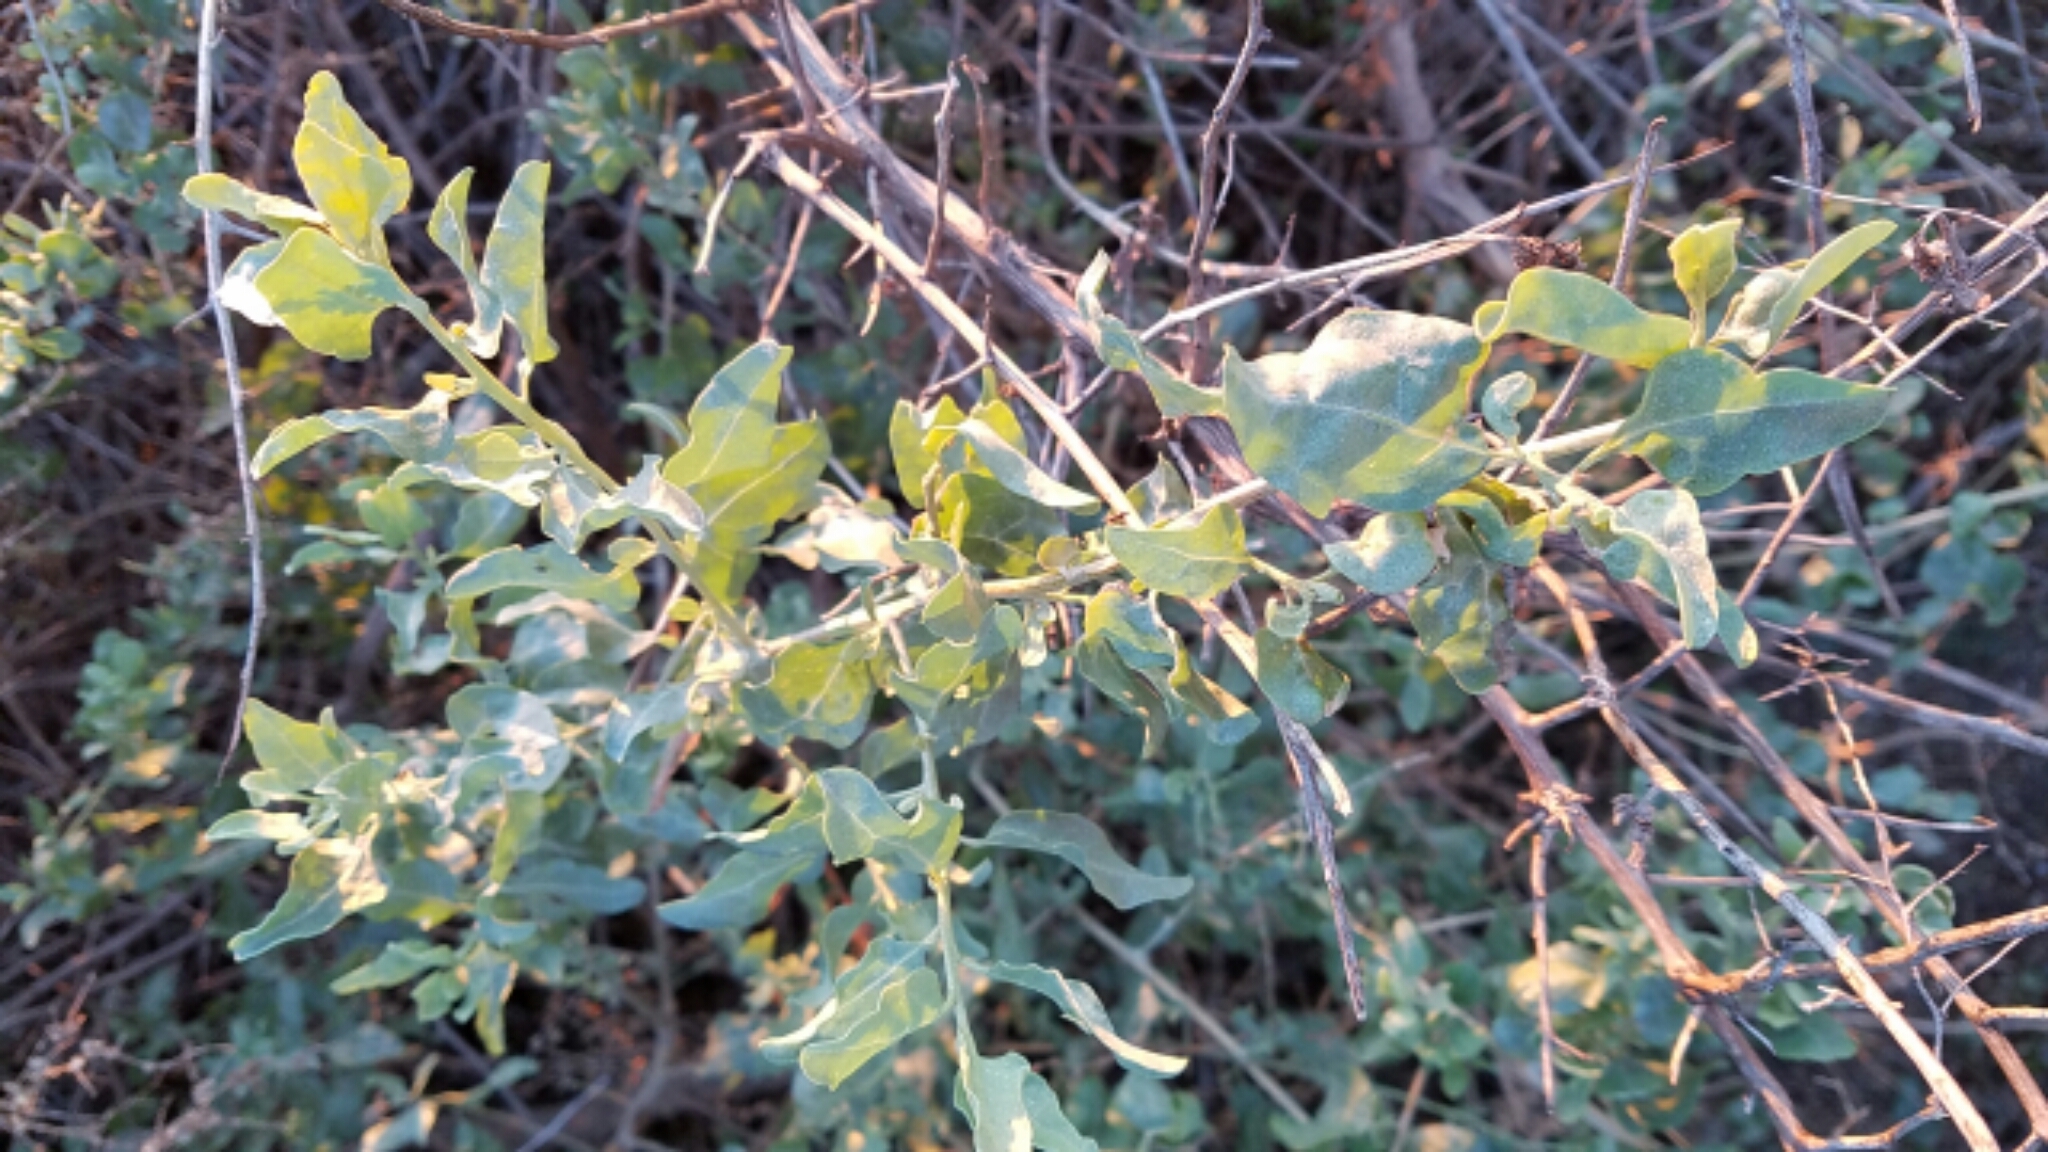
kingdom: Plantae
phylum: Tracheophyta
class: Magnoliopsida
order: Caryophyllales
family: Amaranthaceae
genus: Atriplex
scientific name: Atriplex lentiformis
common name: Big saltbush
